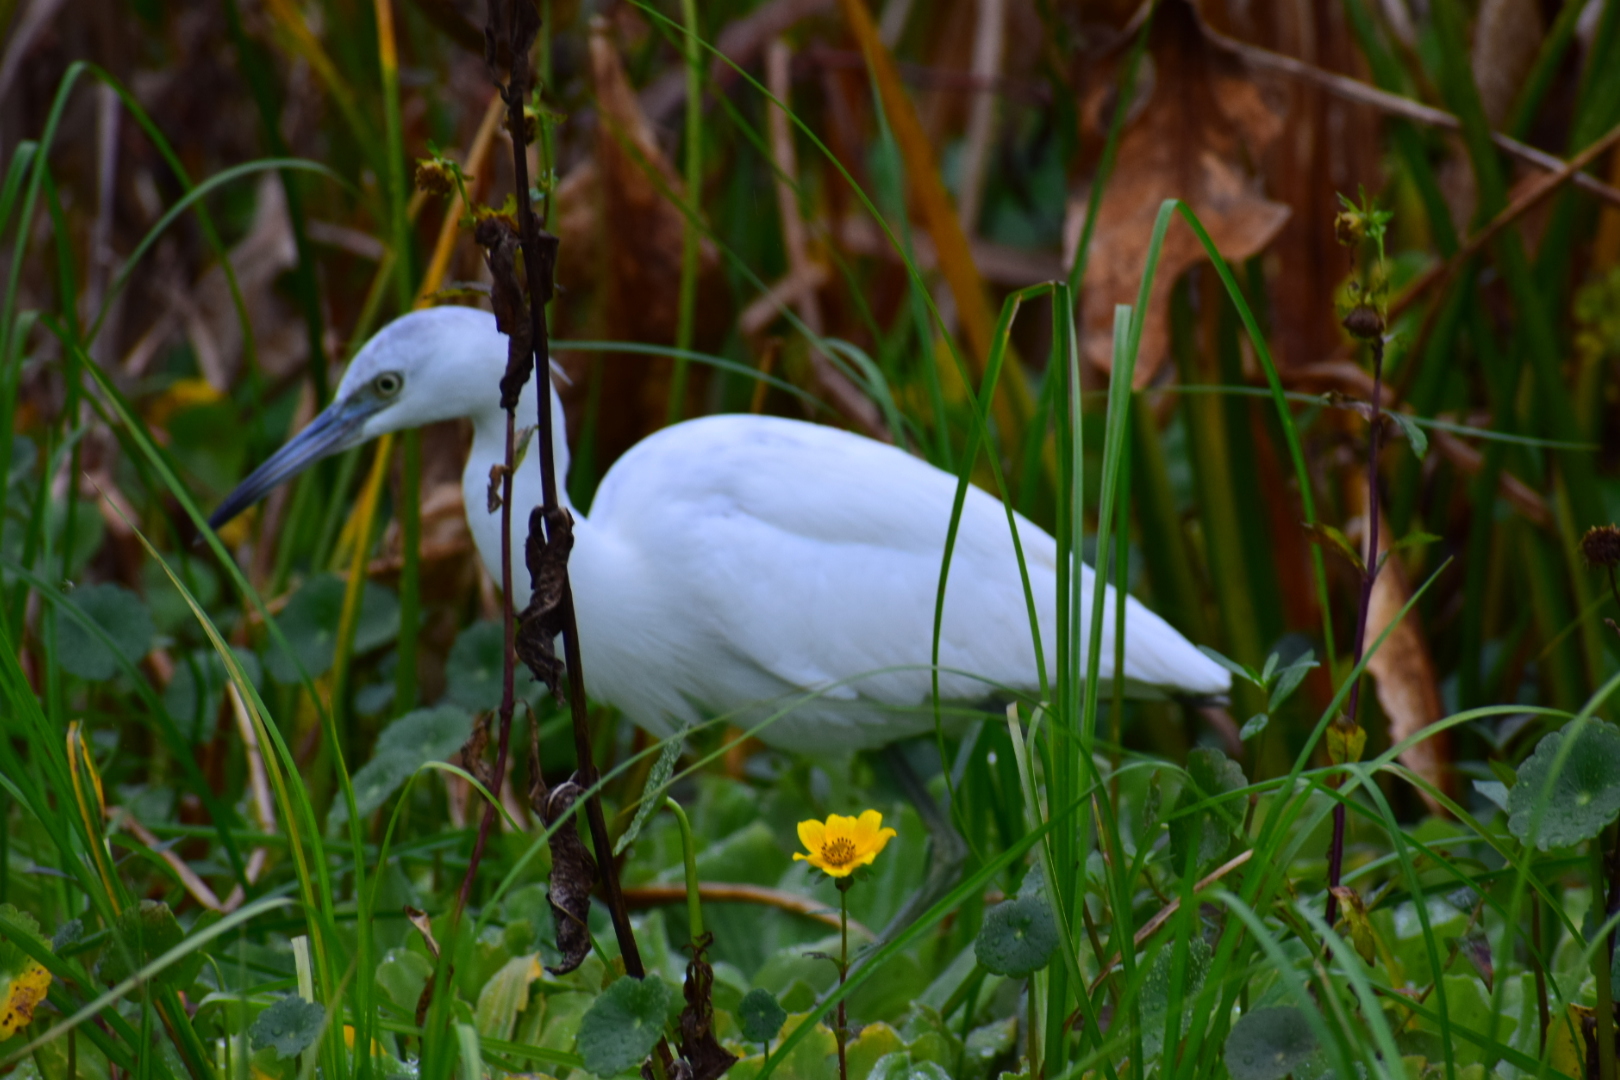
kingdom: Animalia
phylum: Chordata
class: Aves
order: Pelecaniformes
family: Ardeidae
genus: Egretta
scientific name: Egretta caerulea
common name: Little blue heron
